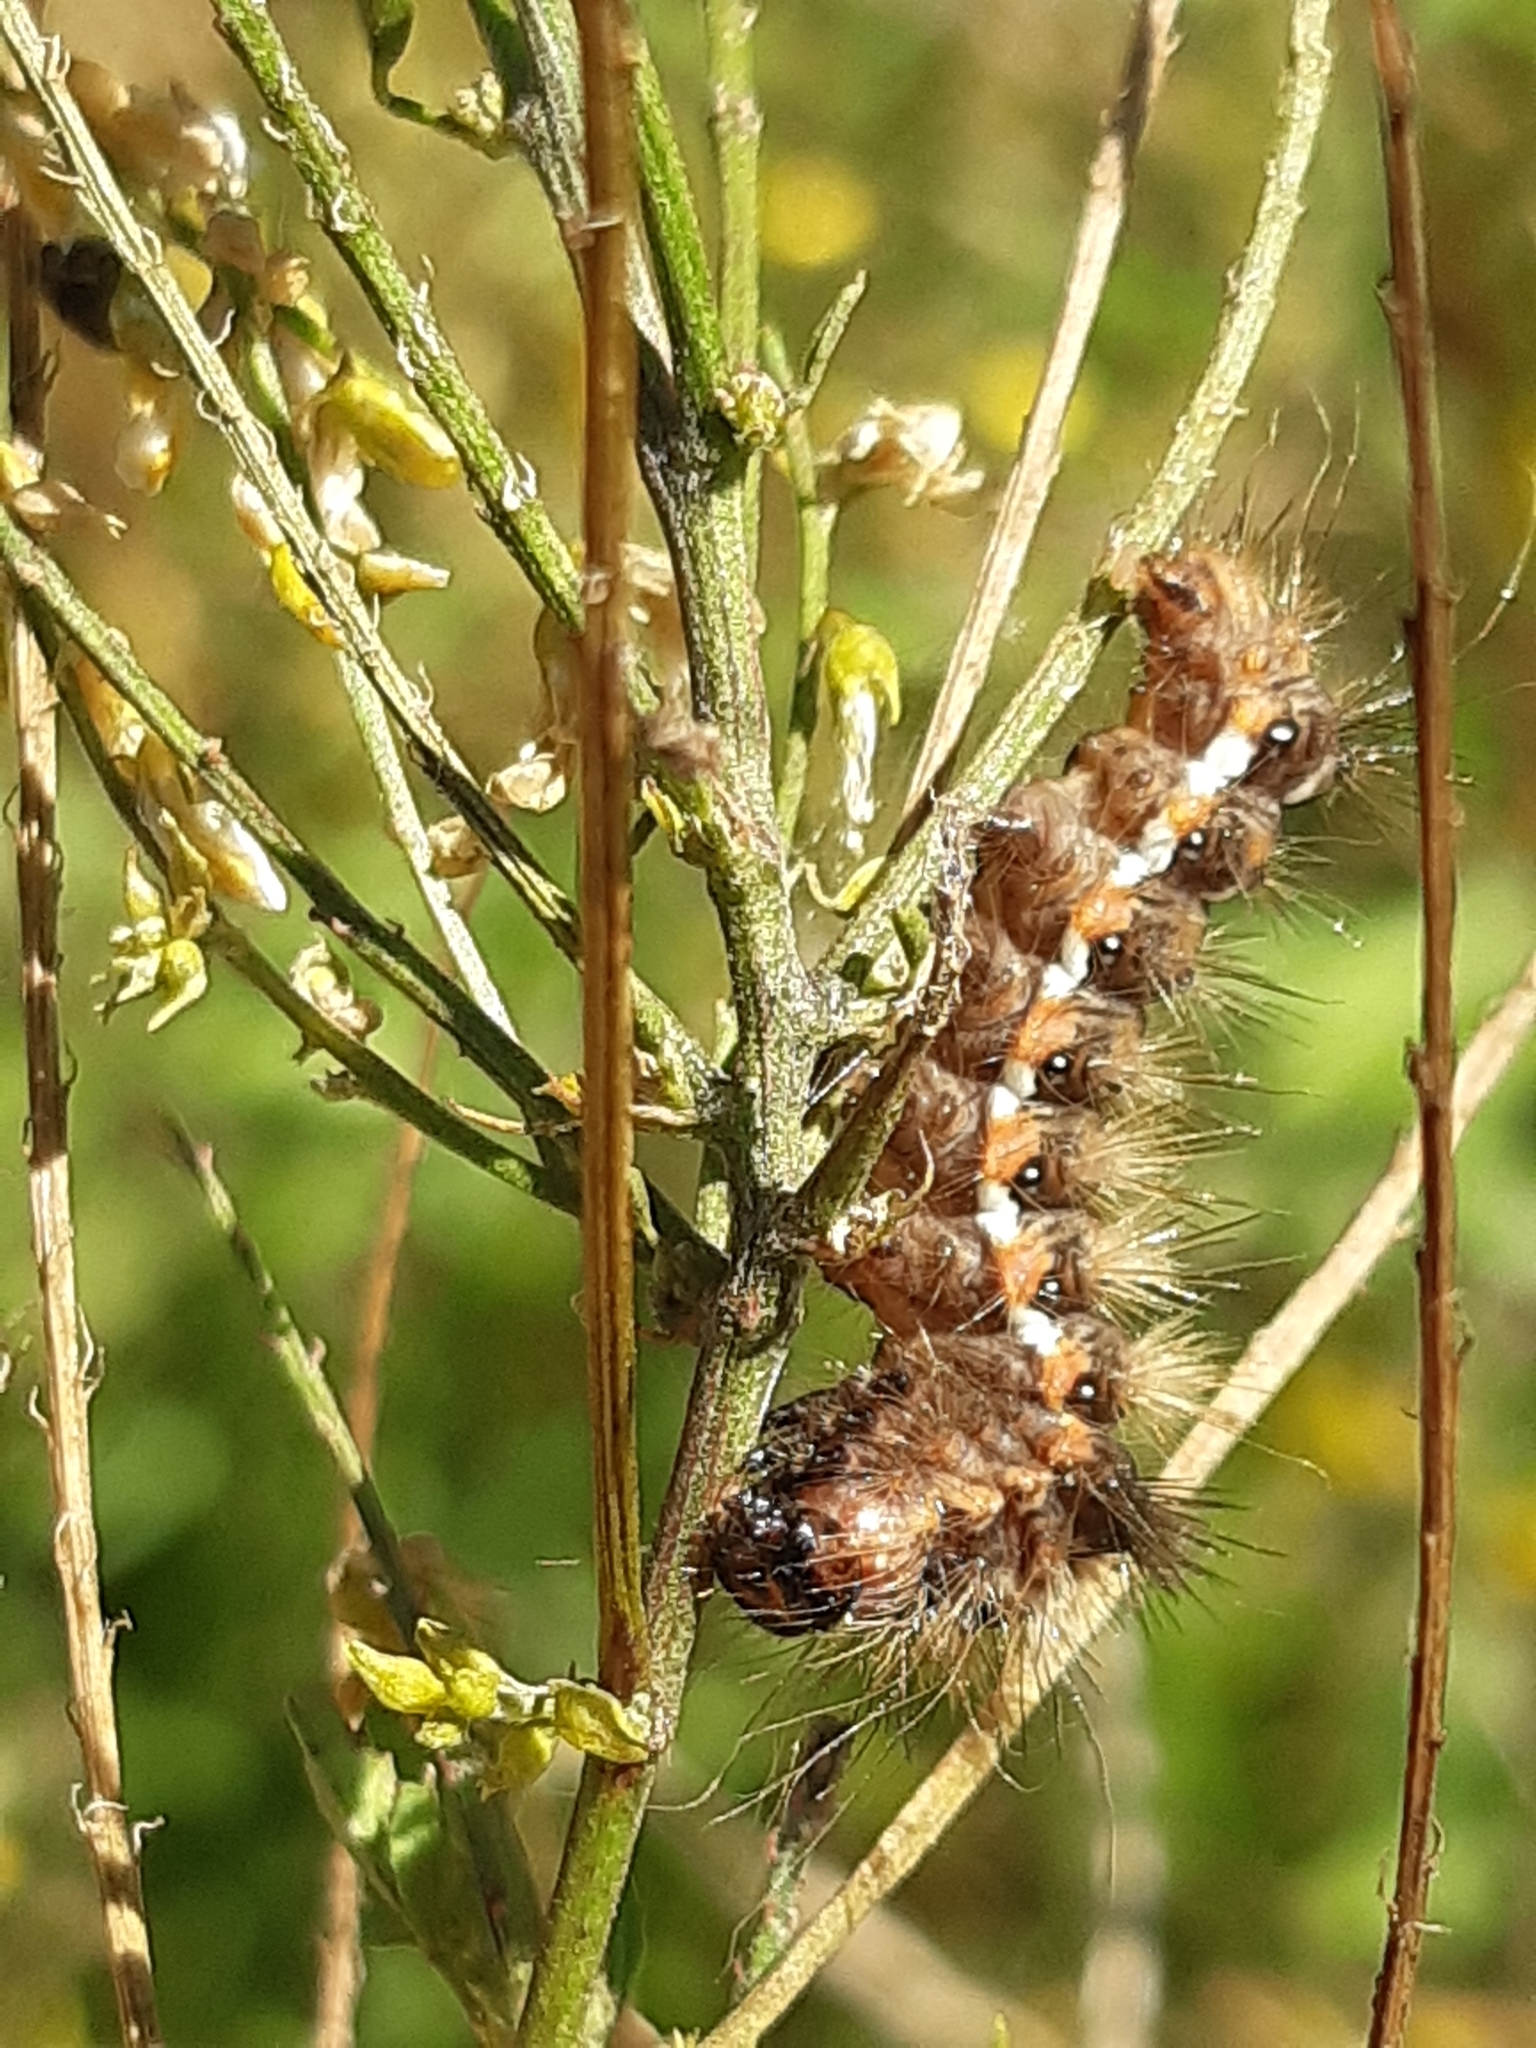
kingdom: Animalia
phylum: Arthropoda
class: Insecta
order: Lepidoptera
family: Noctuidae
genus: Acronicta
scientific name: Acronicta rumicis
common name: Knot grass
